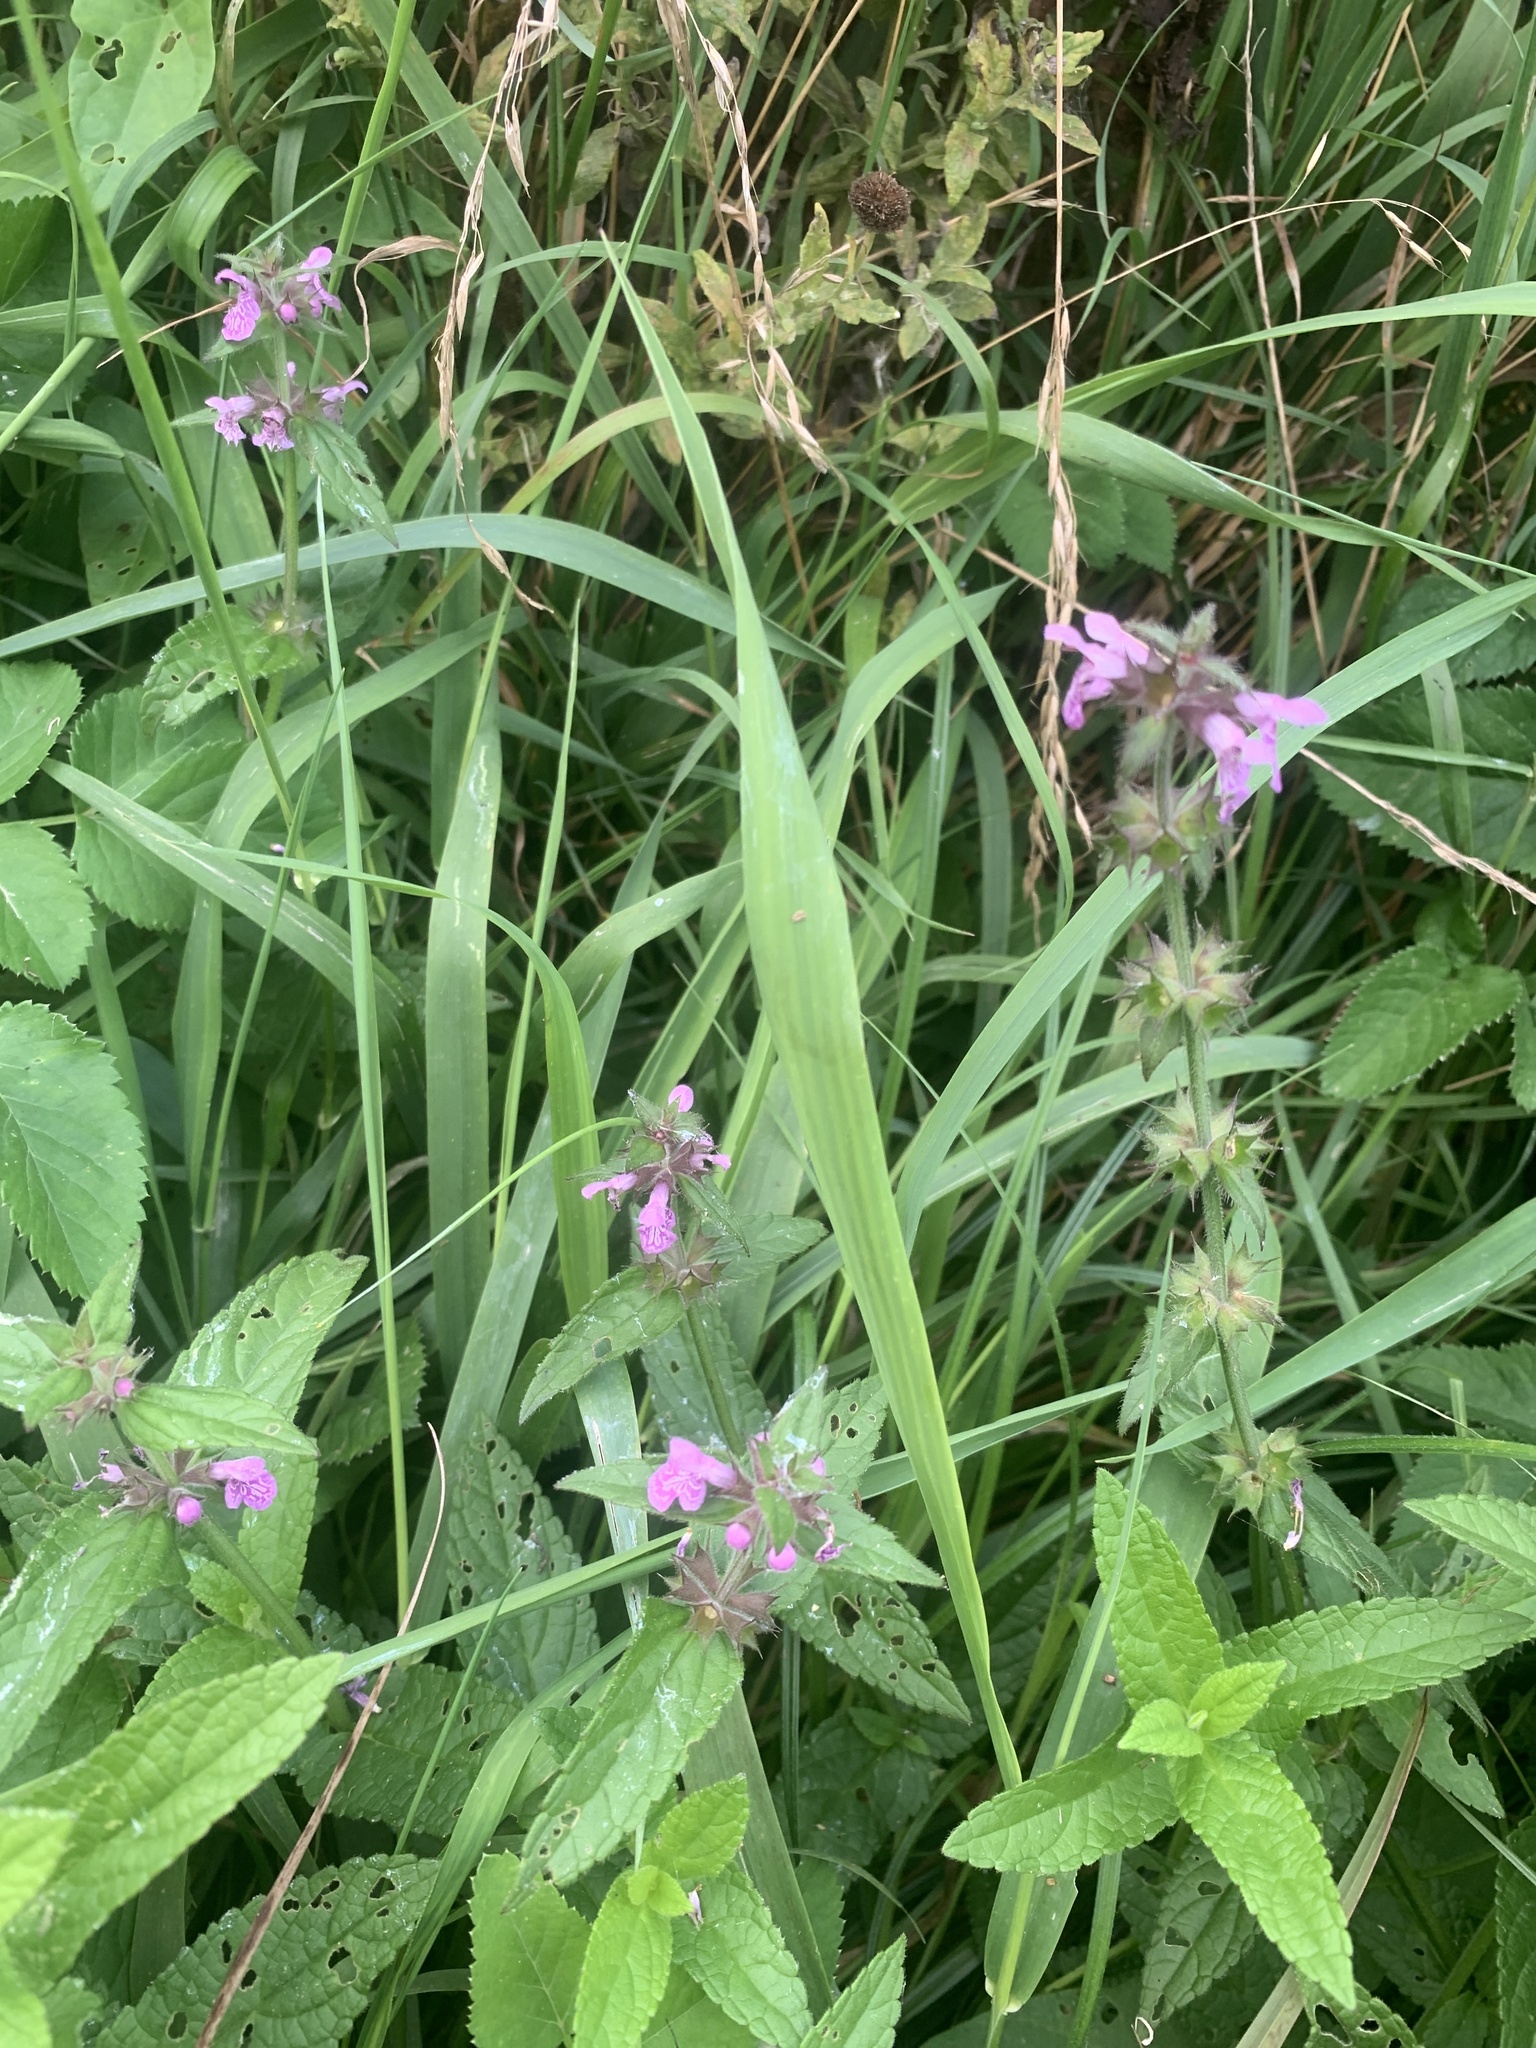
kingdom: Plantae
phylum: Tracheophyta
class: Magnoliopsida
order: Lamiales
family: Lamiaceae
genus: Stachys
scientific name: Stachys palustris
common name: Marsh woundwort
